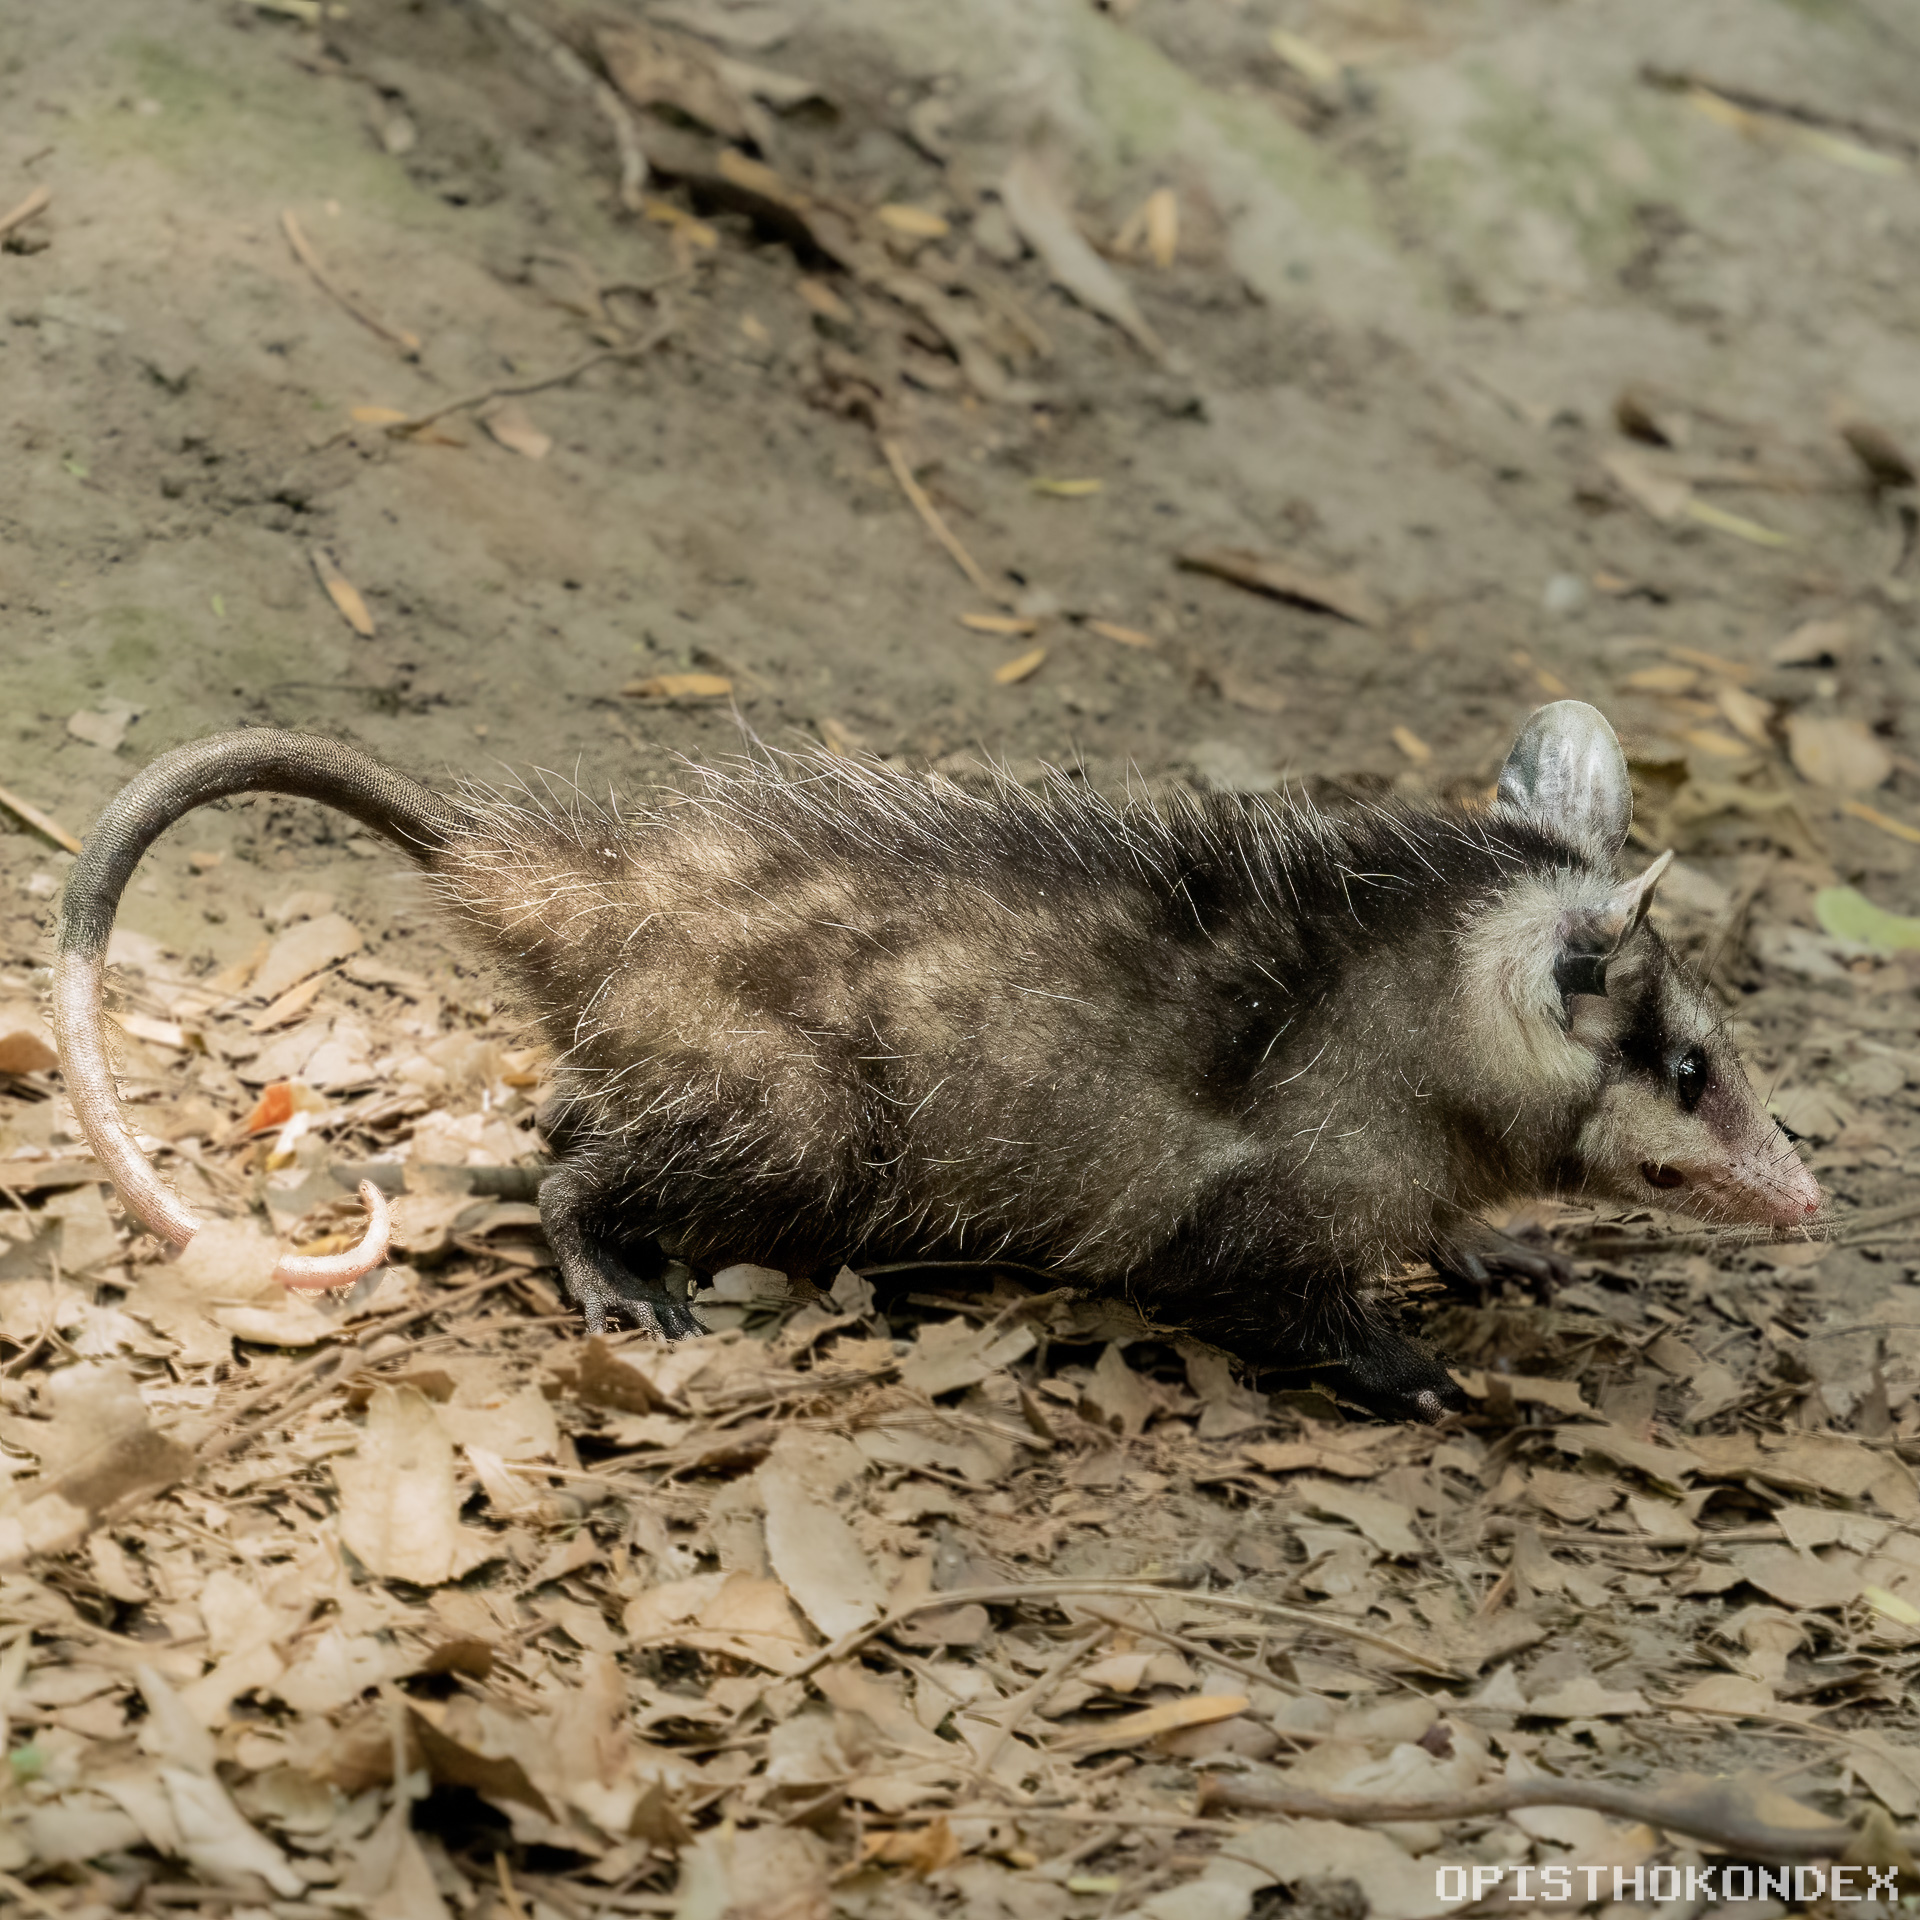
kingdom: Animalia
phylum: Chordata
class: Mammalia
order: Didelphimorphia
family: Didelphidae
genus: Didelphis
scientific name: Didelphis virginiana
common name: Virginia opossum
